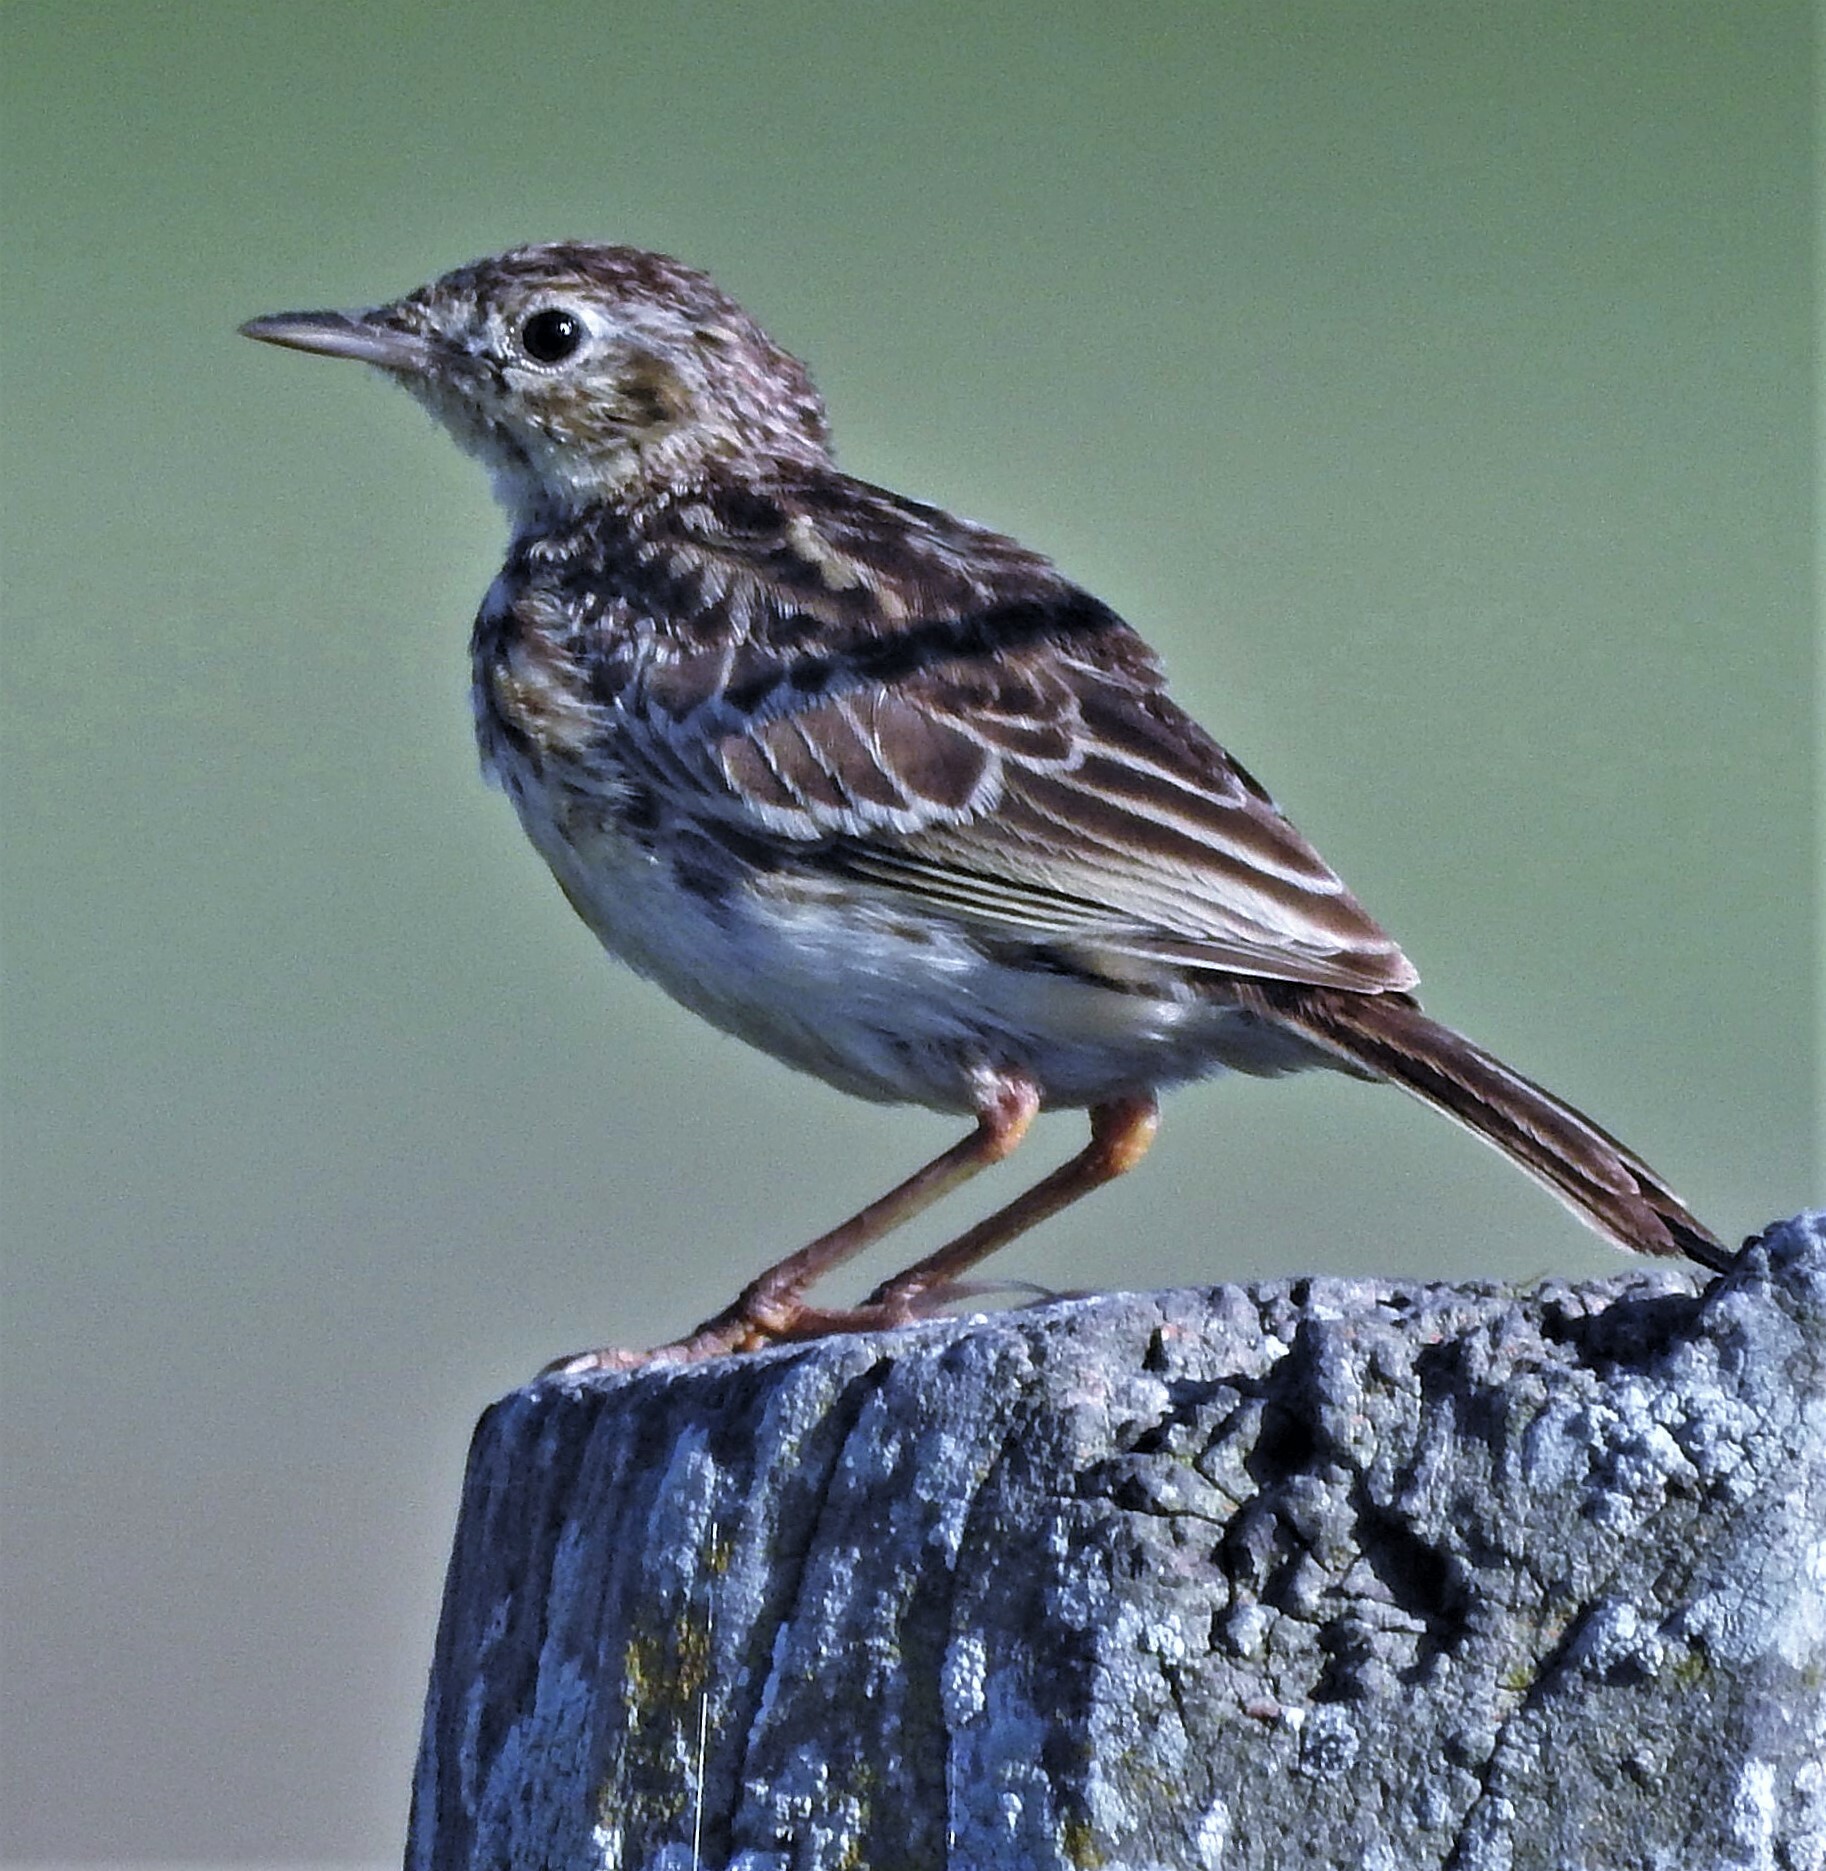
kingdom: Animalia
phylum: Chordata
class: Aves
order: Passeriformes
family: Motacillidae
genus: Anthus
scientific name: Anthus chii
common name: Yellowish pipit
